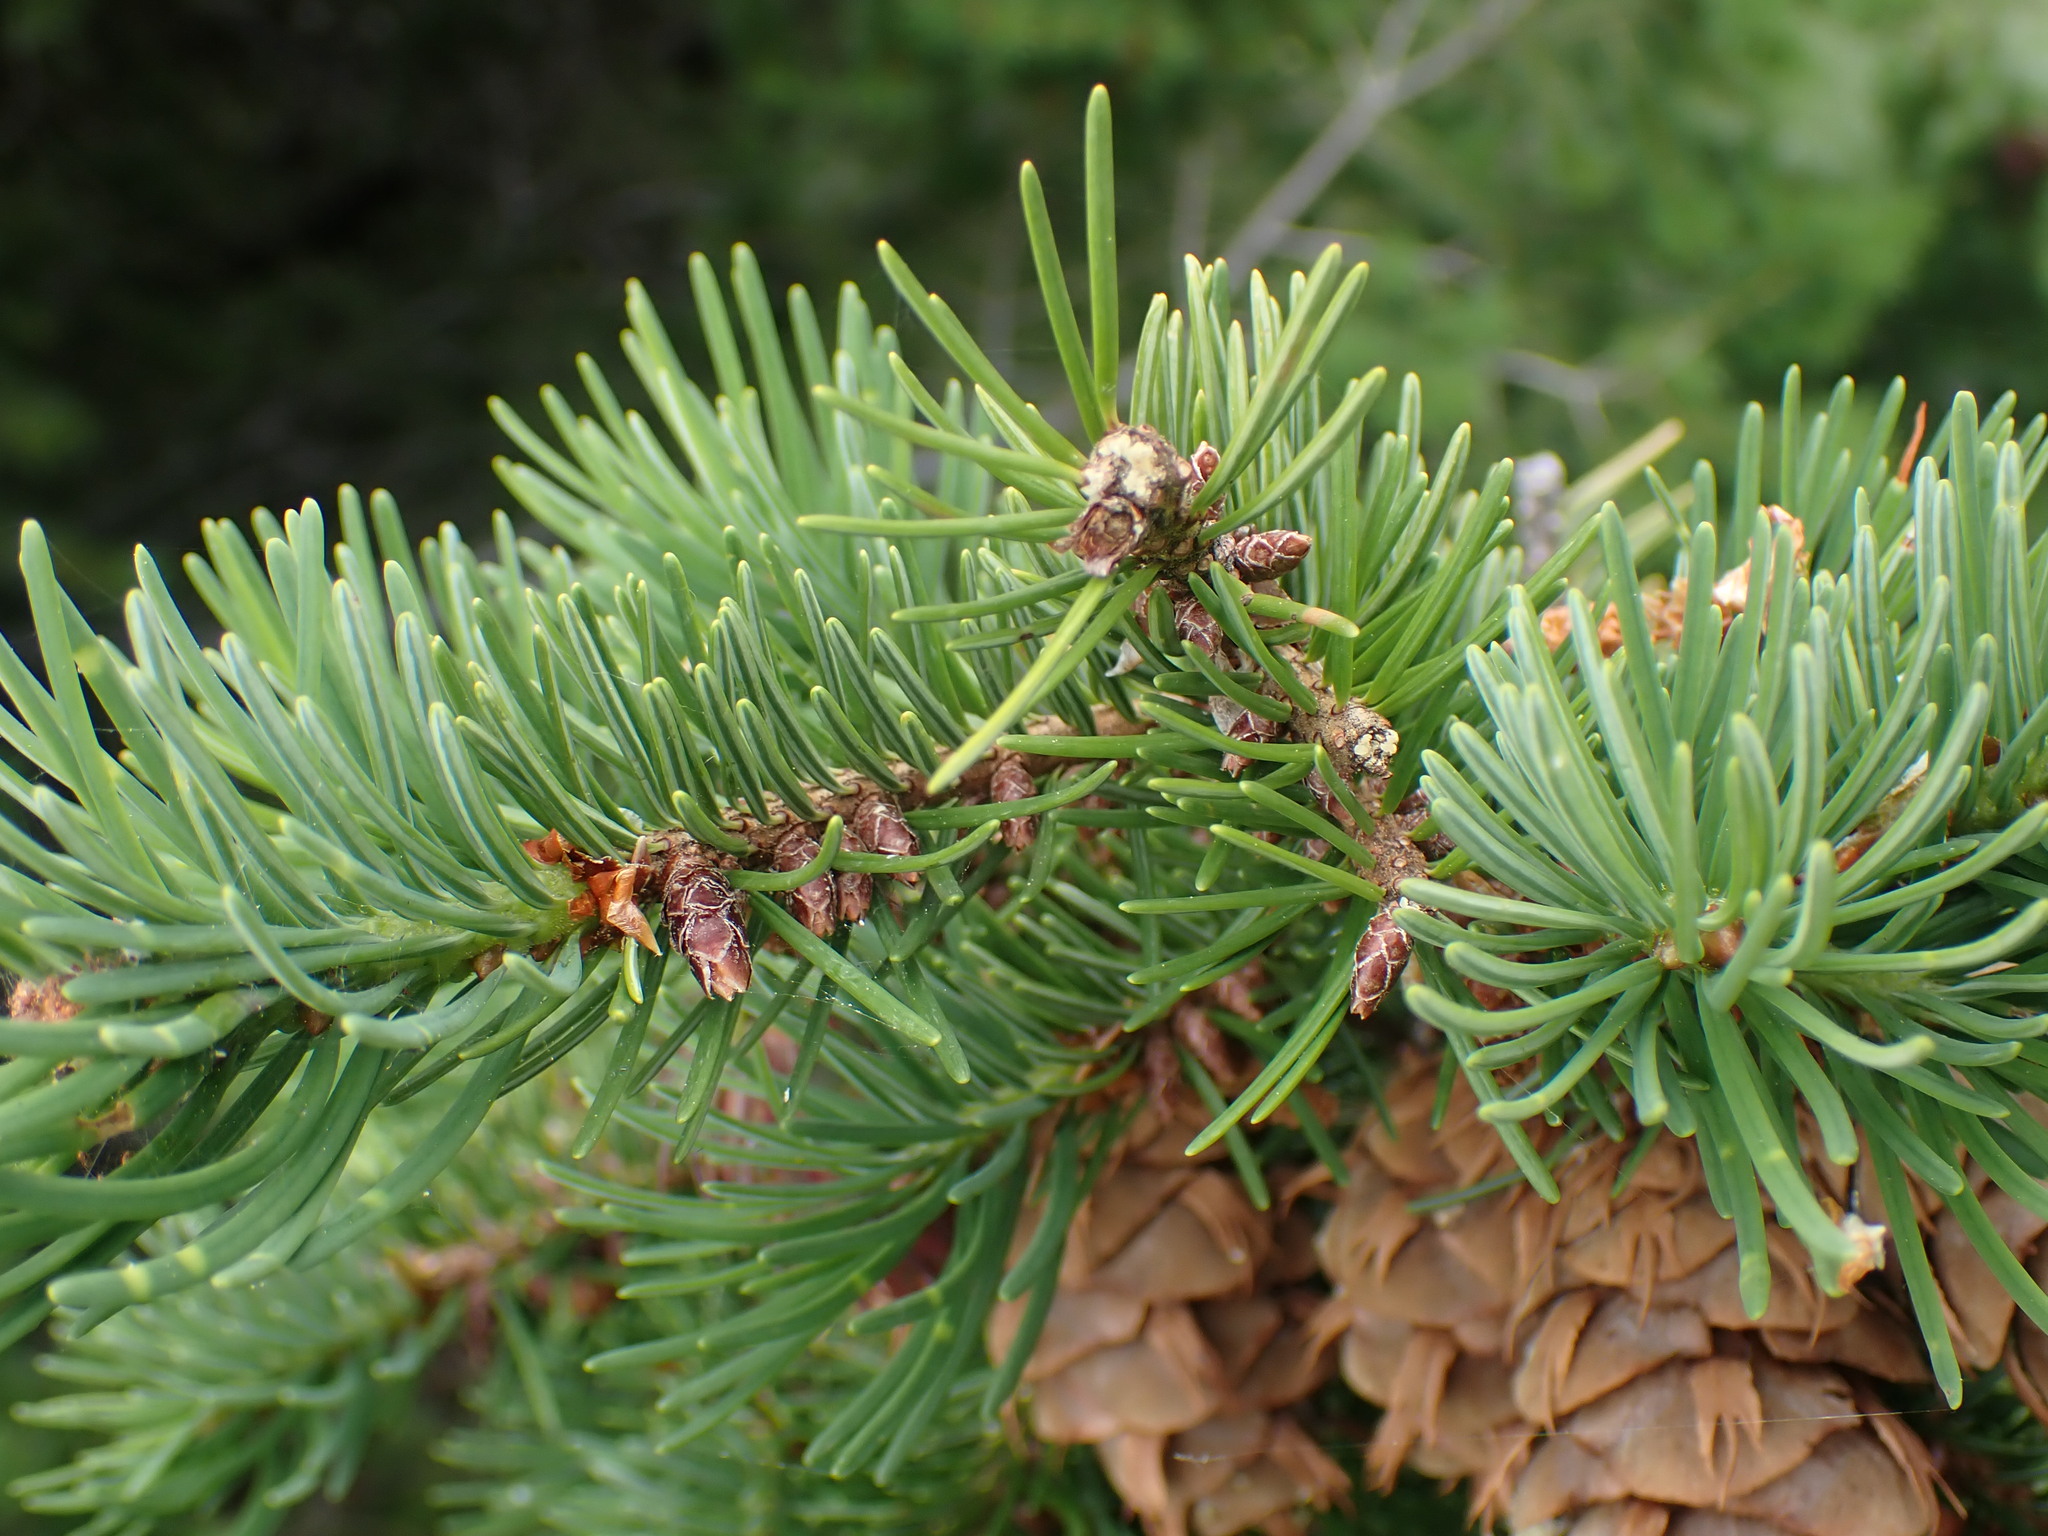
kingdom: Plantae
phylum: Tracheophyta
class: Pinopsida
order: Pinales
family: Pinaceae
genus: Pseudotsuga
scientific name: Pseudotsuga menziesii
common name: Douglas fir
